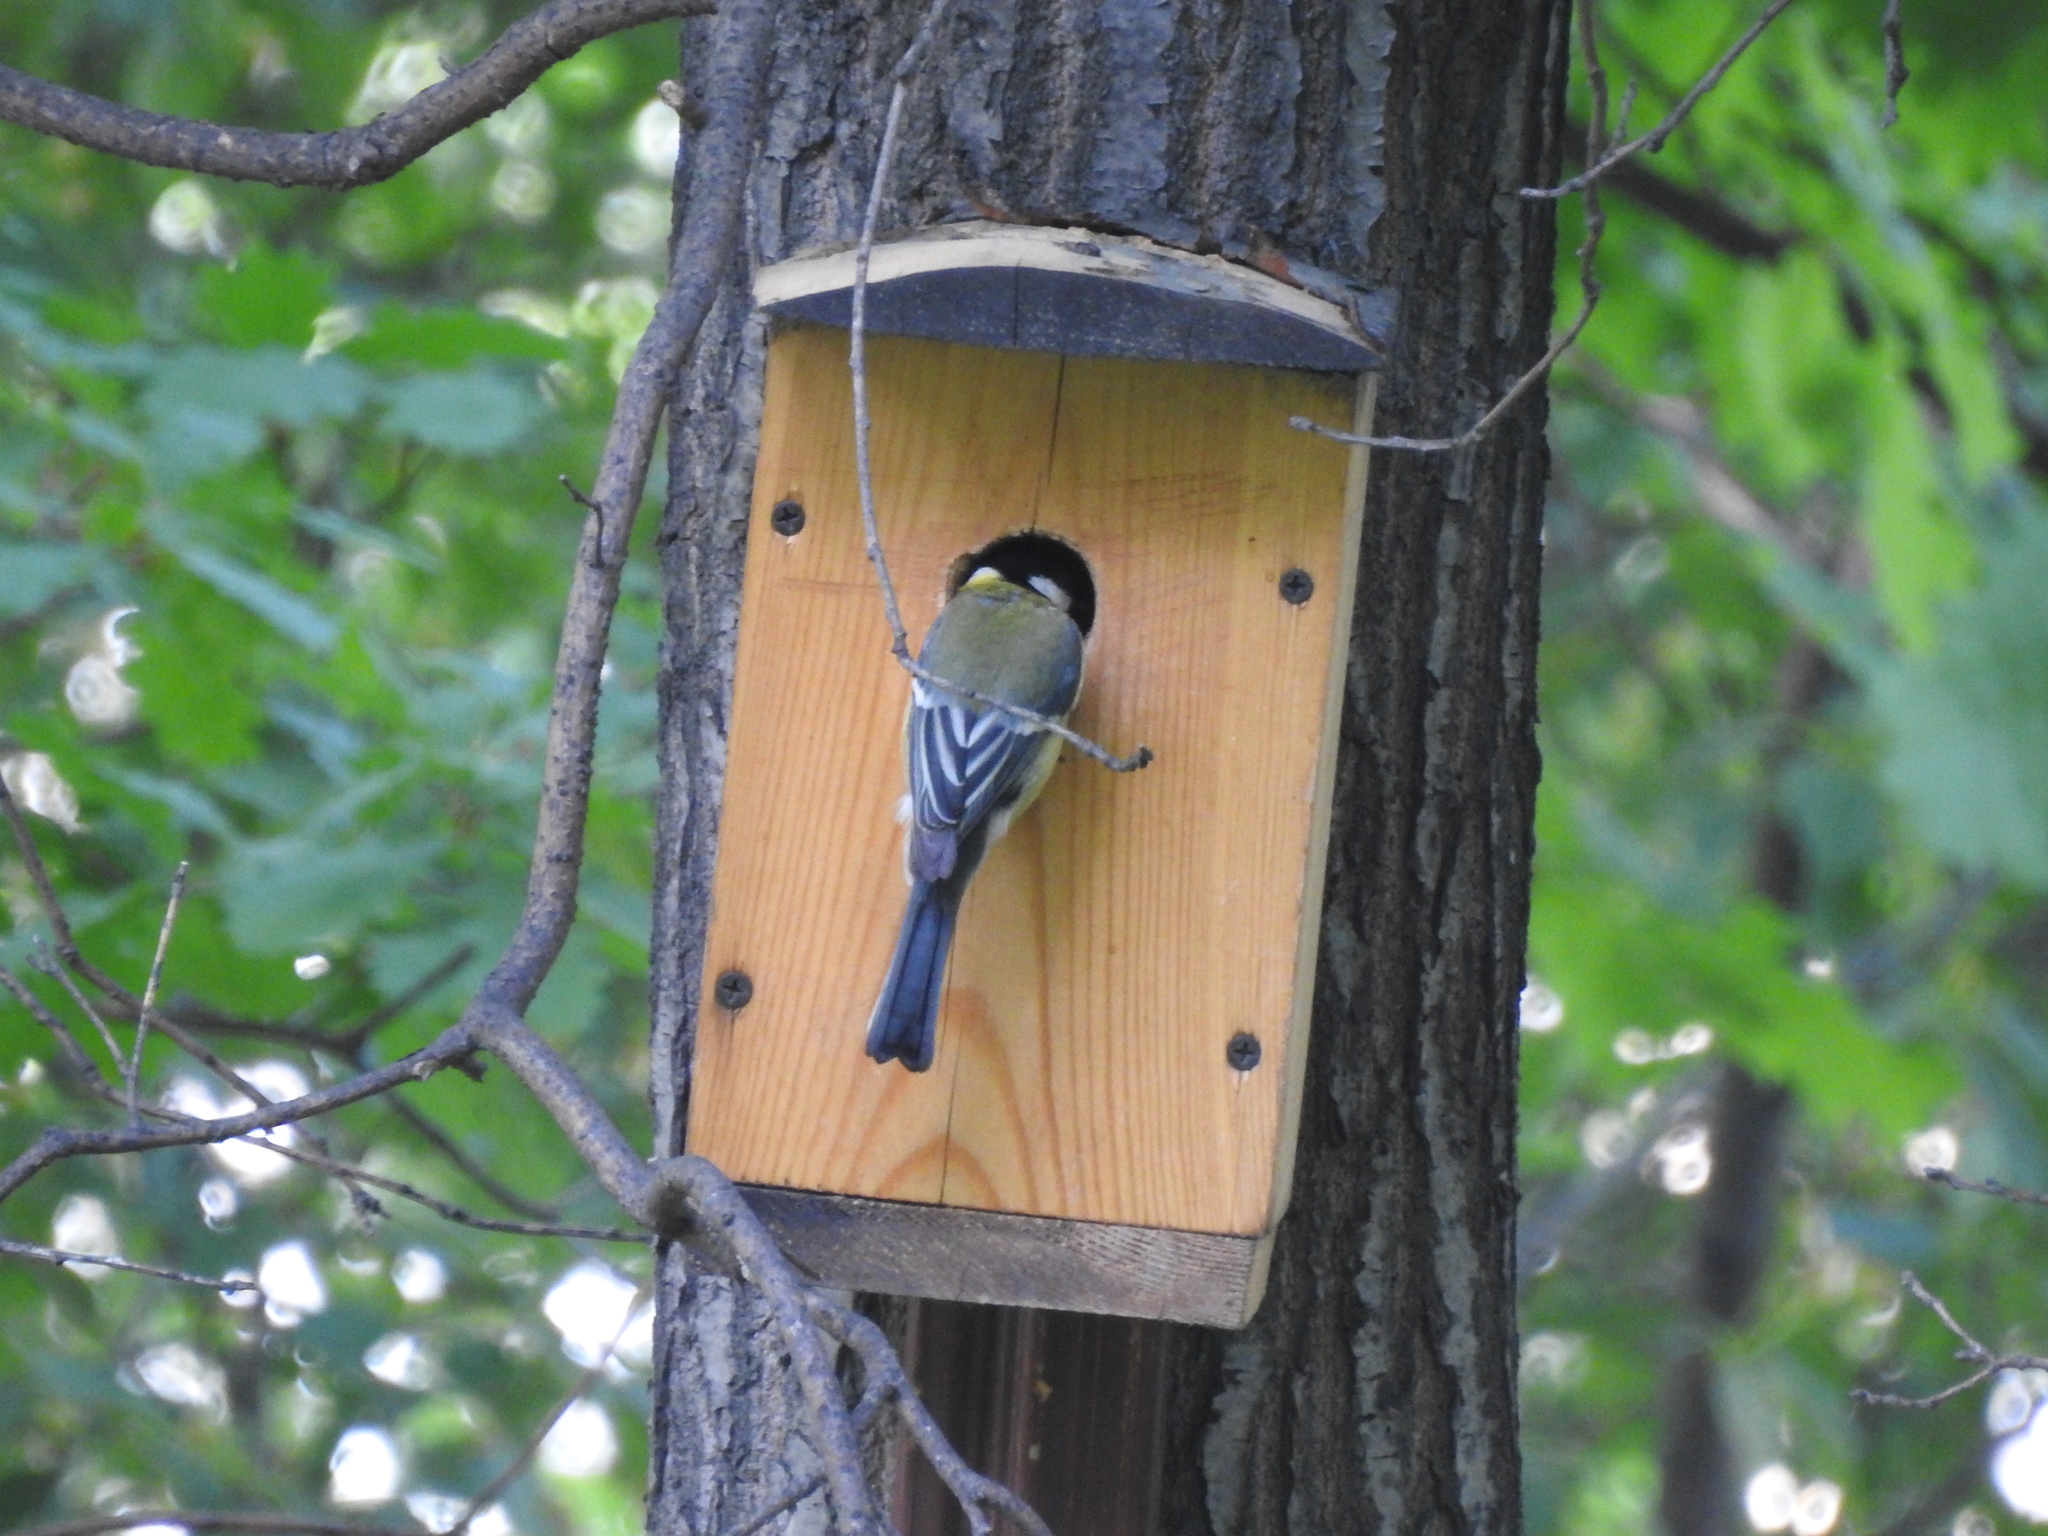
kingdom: Animalia
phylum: Chordata
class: Aves
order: Passeriformes
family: Paridae
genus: Parus
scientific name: Parus major
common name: Great tit
